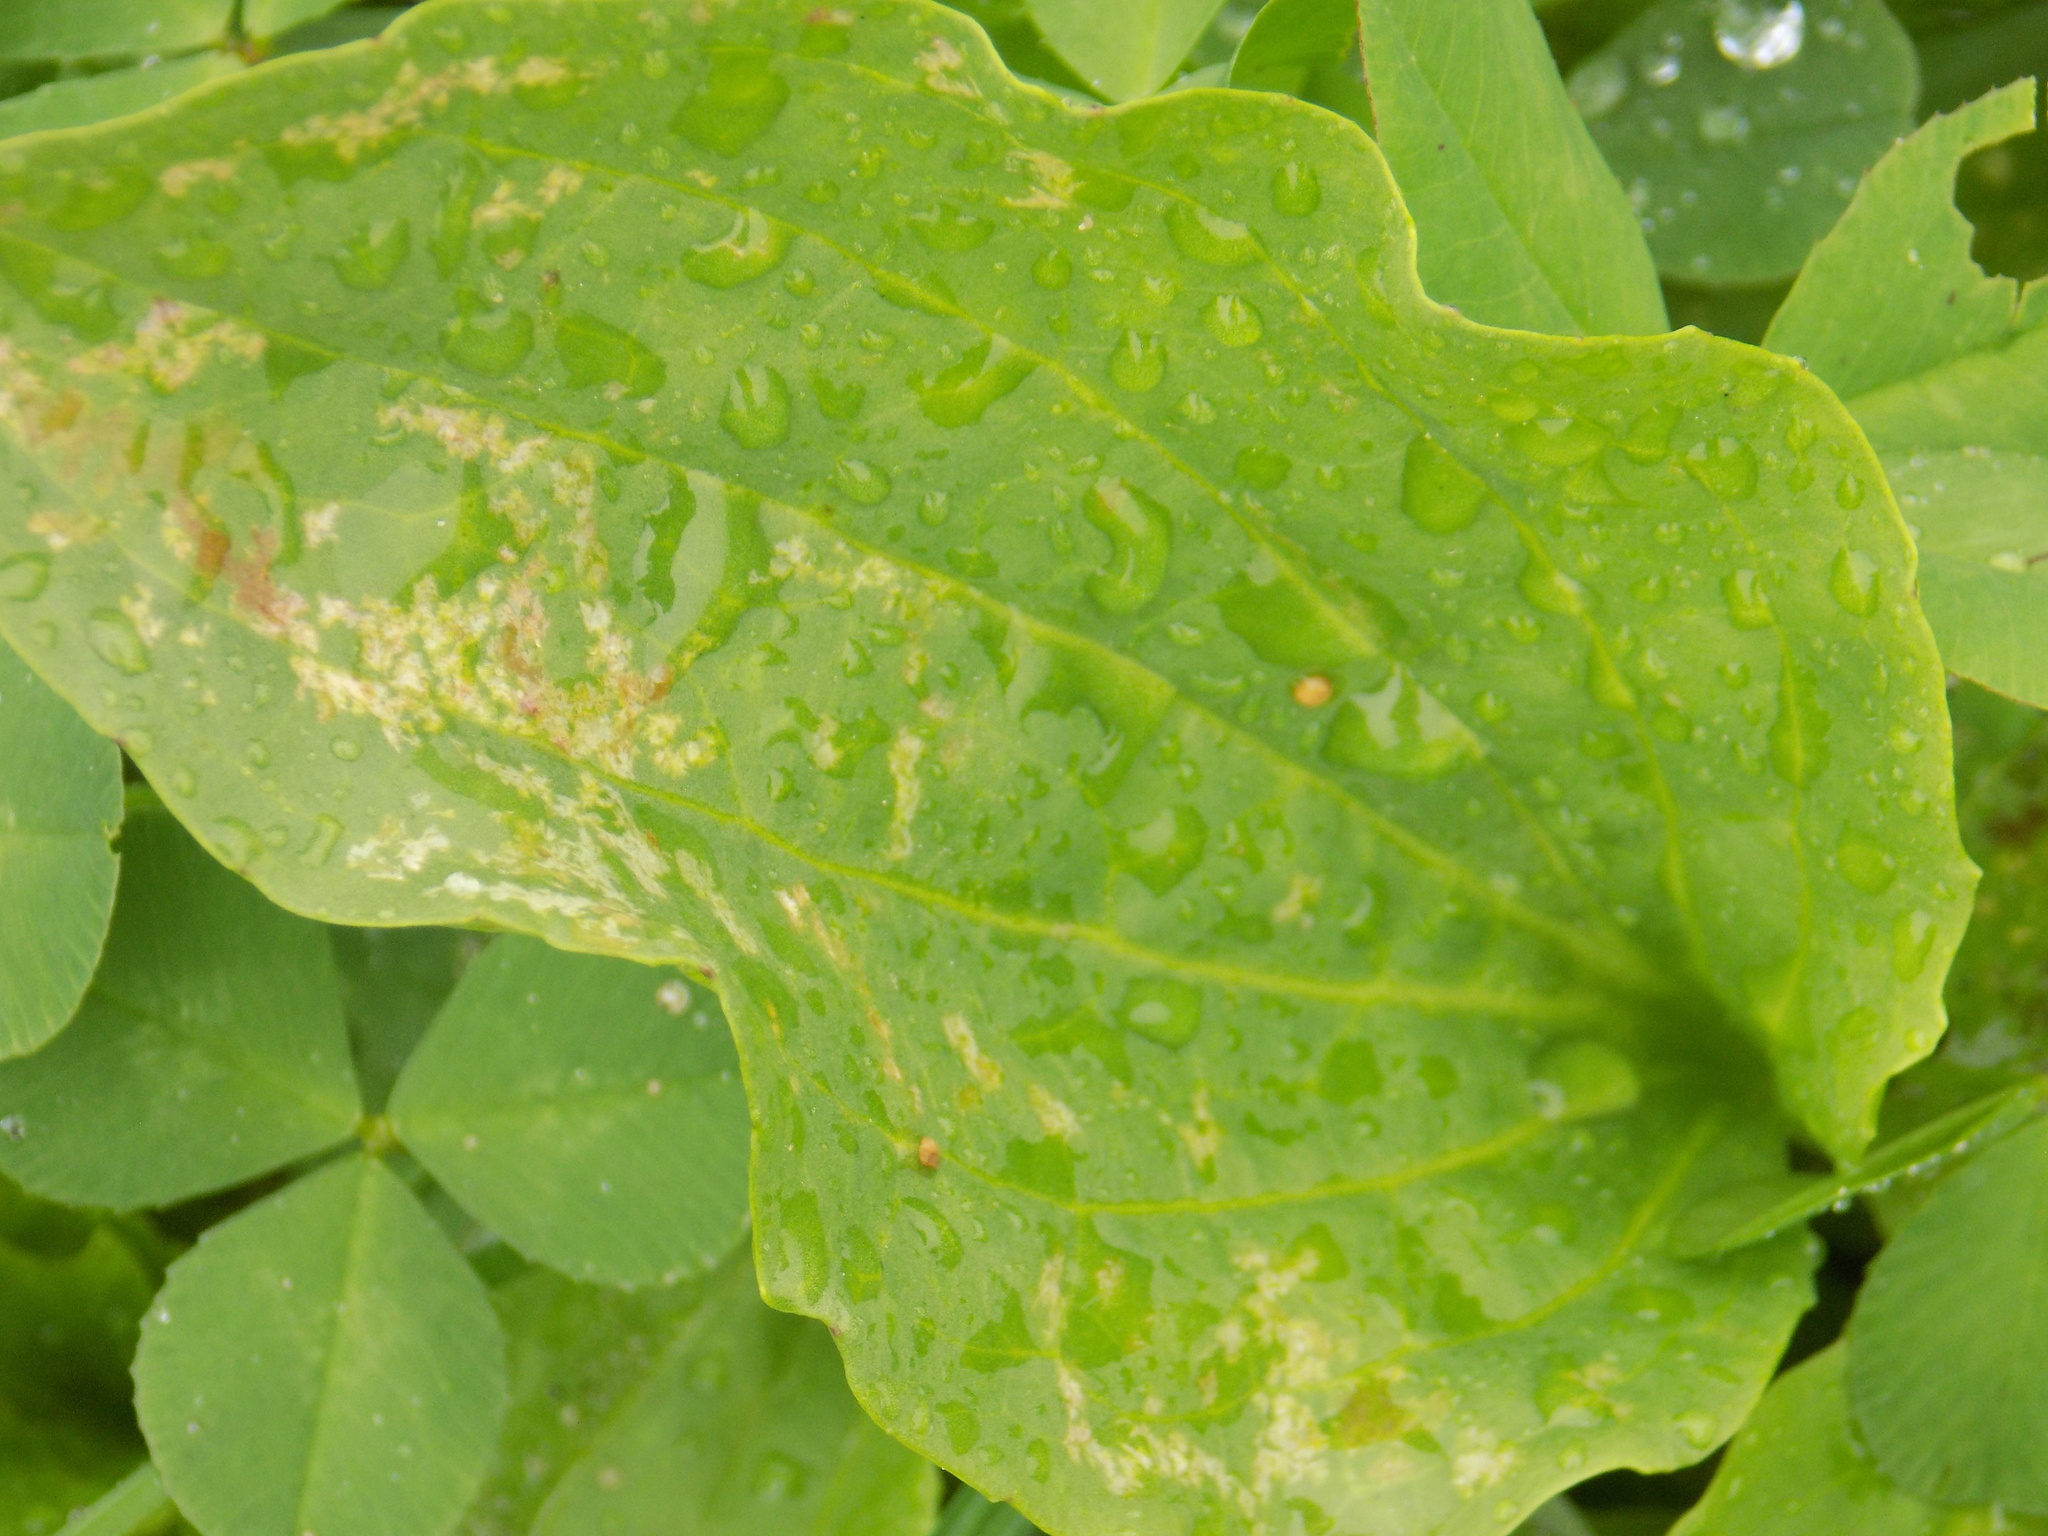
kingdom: Plantae
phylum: Tracheophyta
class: Magnoliopsida
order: Lamiales
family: Plantaginaceae
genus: Plantago
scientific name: Plantago major
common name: Common plantain
